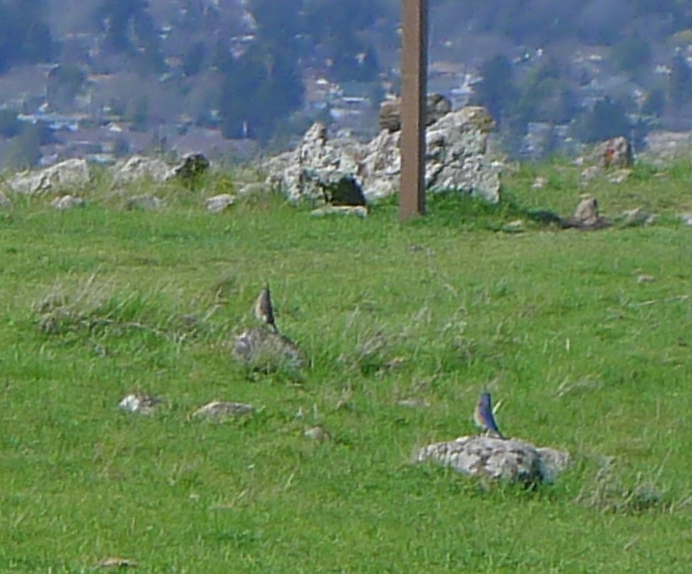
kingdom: Animalia
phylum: Chordata
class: Aves
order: Passeriformes
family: Turdidae
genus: Sialia
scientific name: Sialia mexicana
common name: Western bluebird
